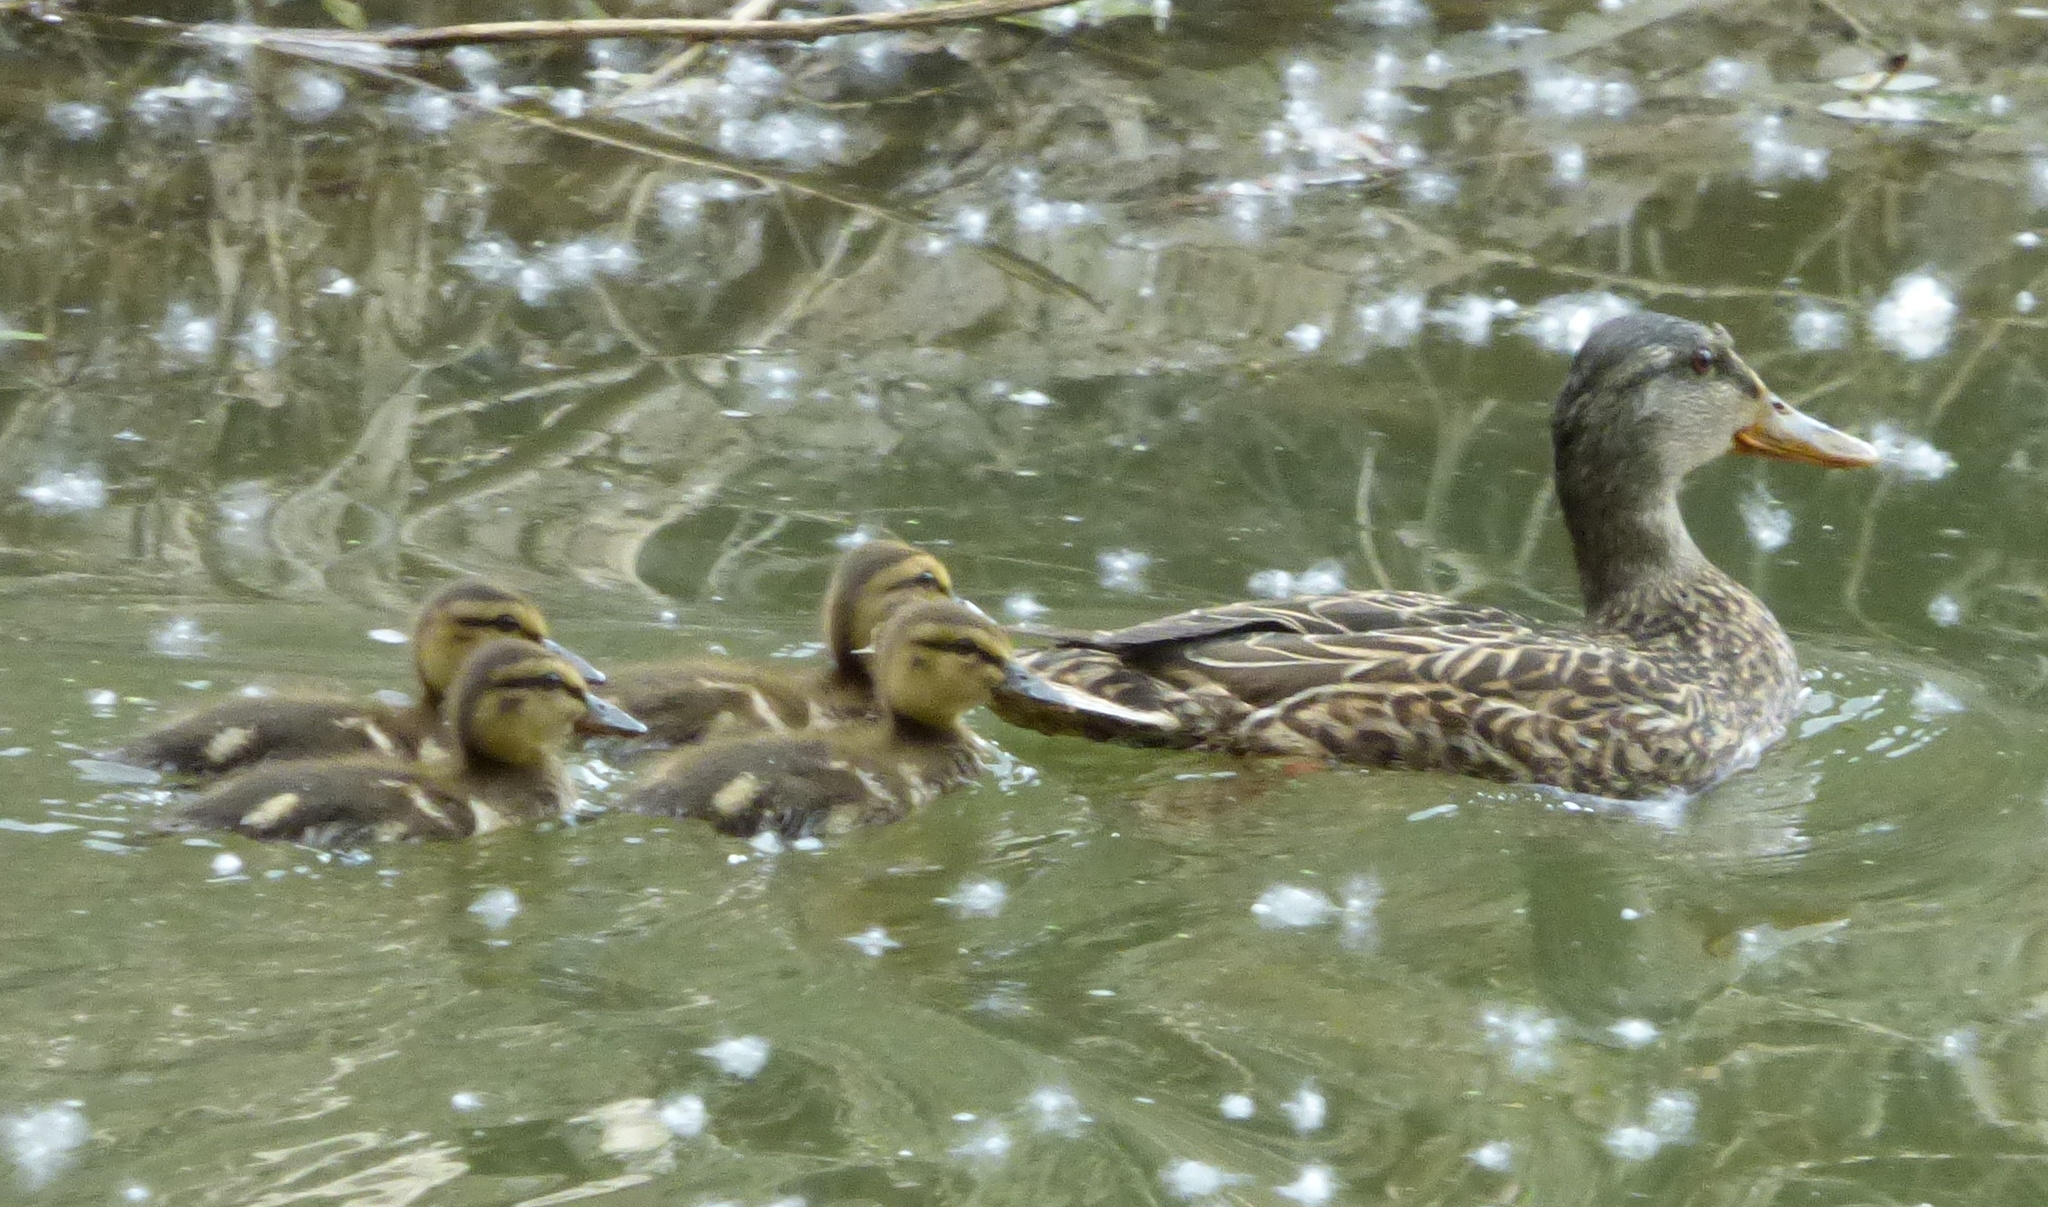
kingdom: Animalia
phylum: Chordata
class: Aves
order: Anseriformes
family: Anatidae
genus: Anas
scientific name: Anas platyrhynchos
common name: Mallard
